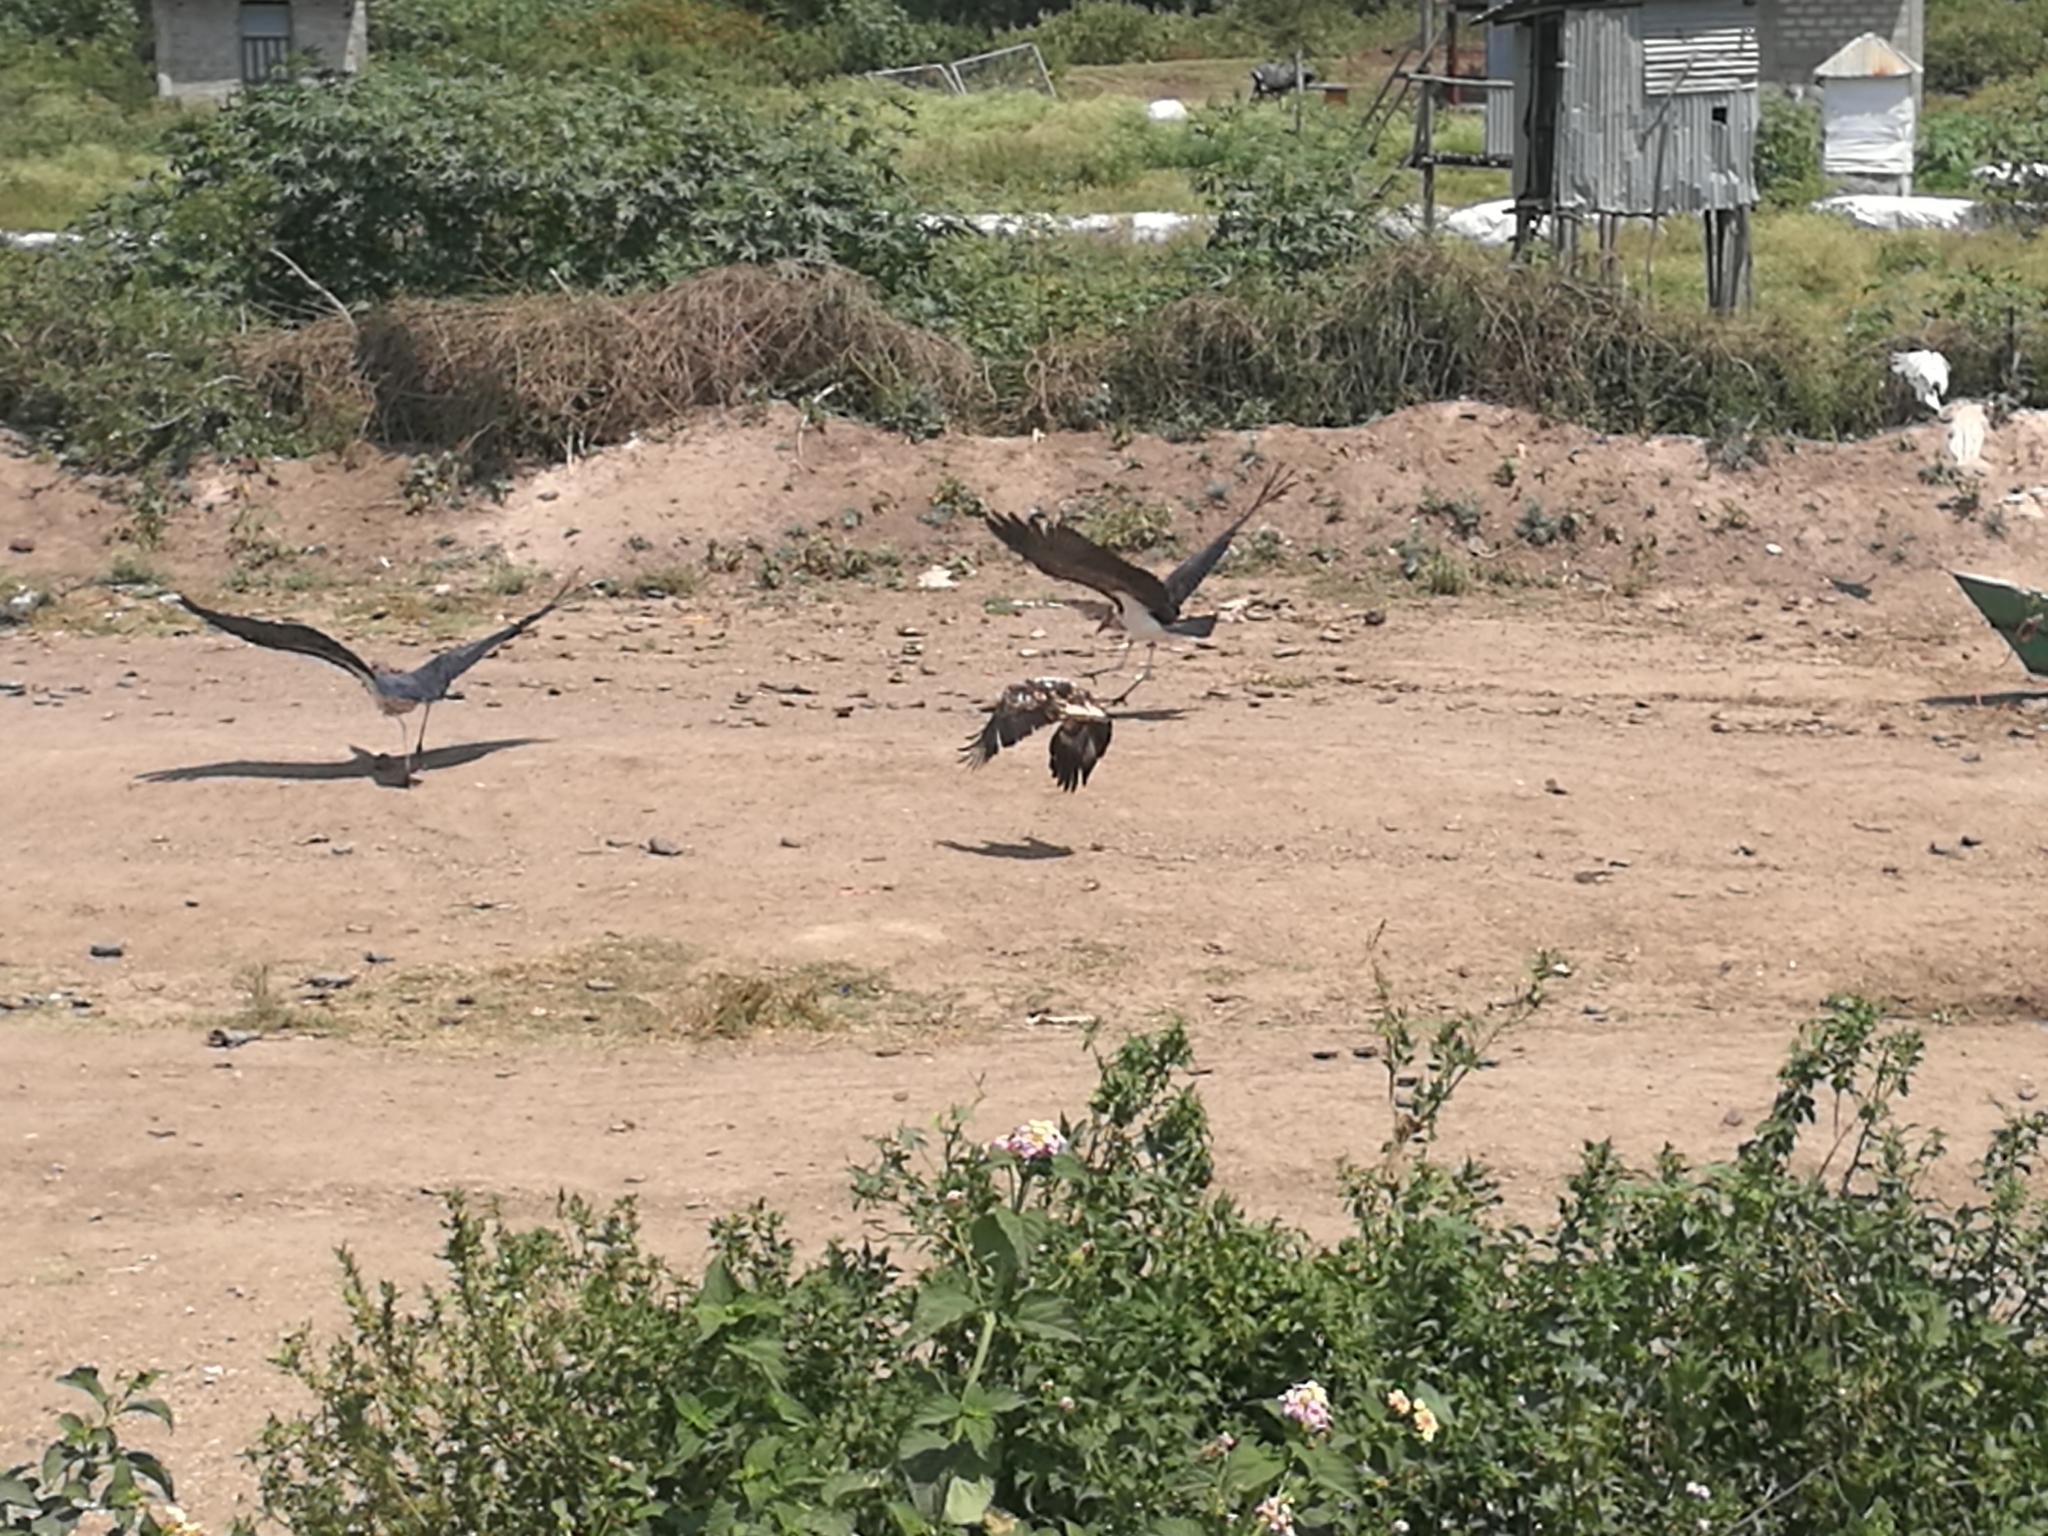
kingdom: Animalia
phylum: Chordata
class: Aves
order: Accipitriformes
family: Accipitridae
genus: Haliaeetus
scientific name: Haliaeetus vocifer
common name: African fish eagle
